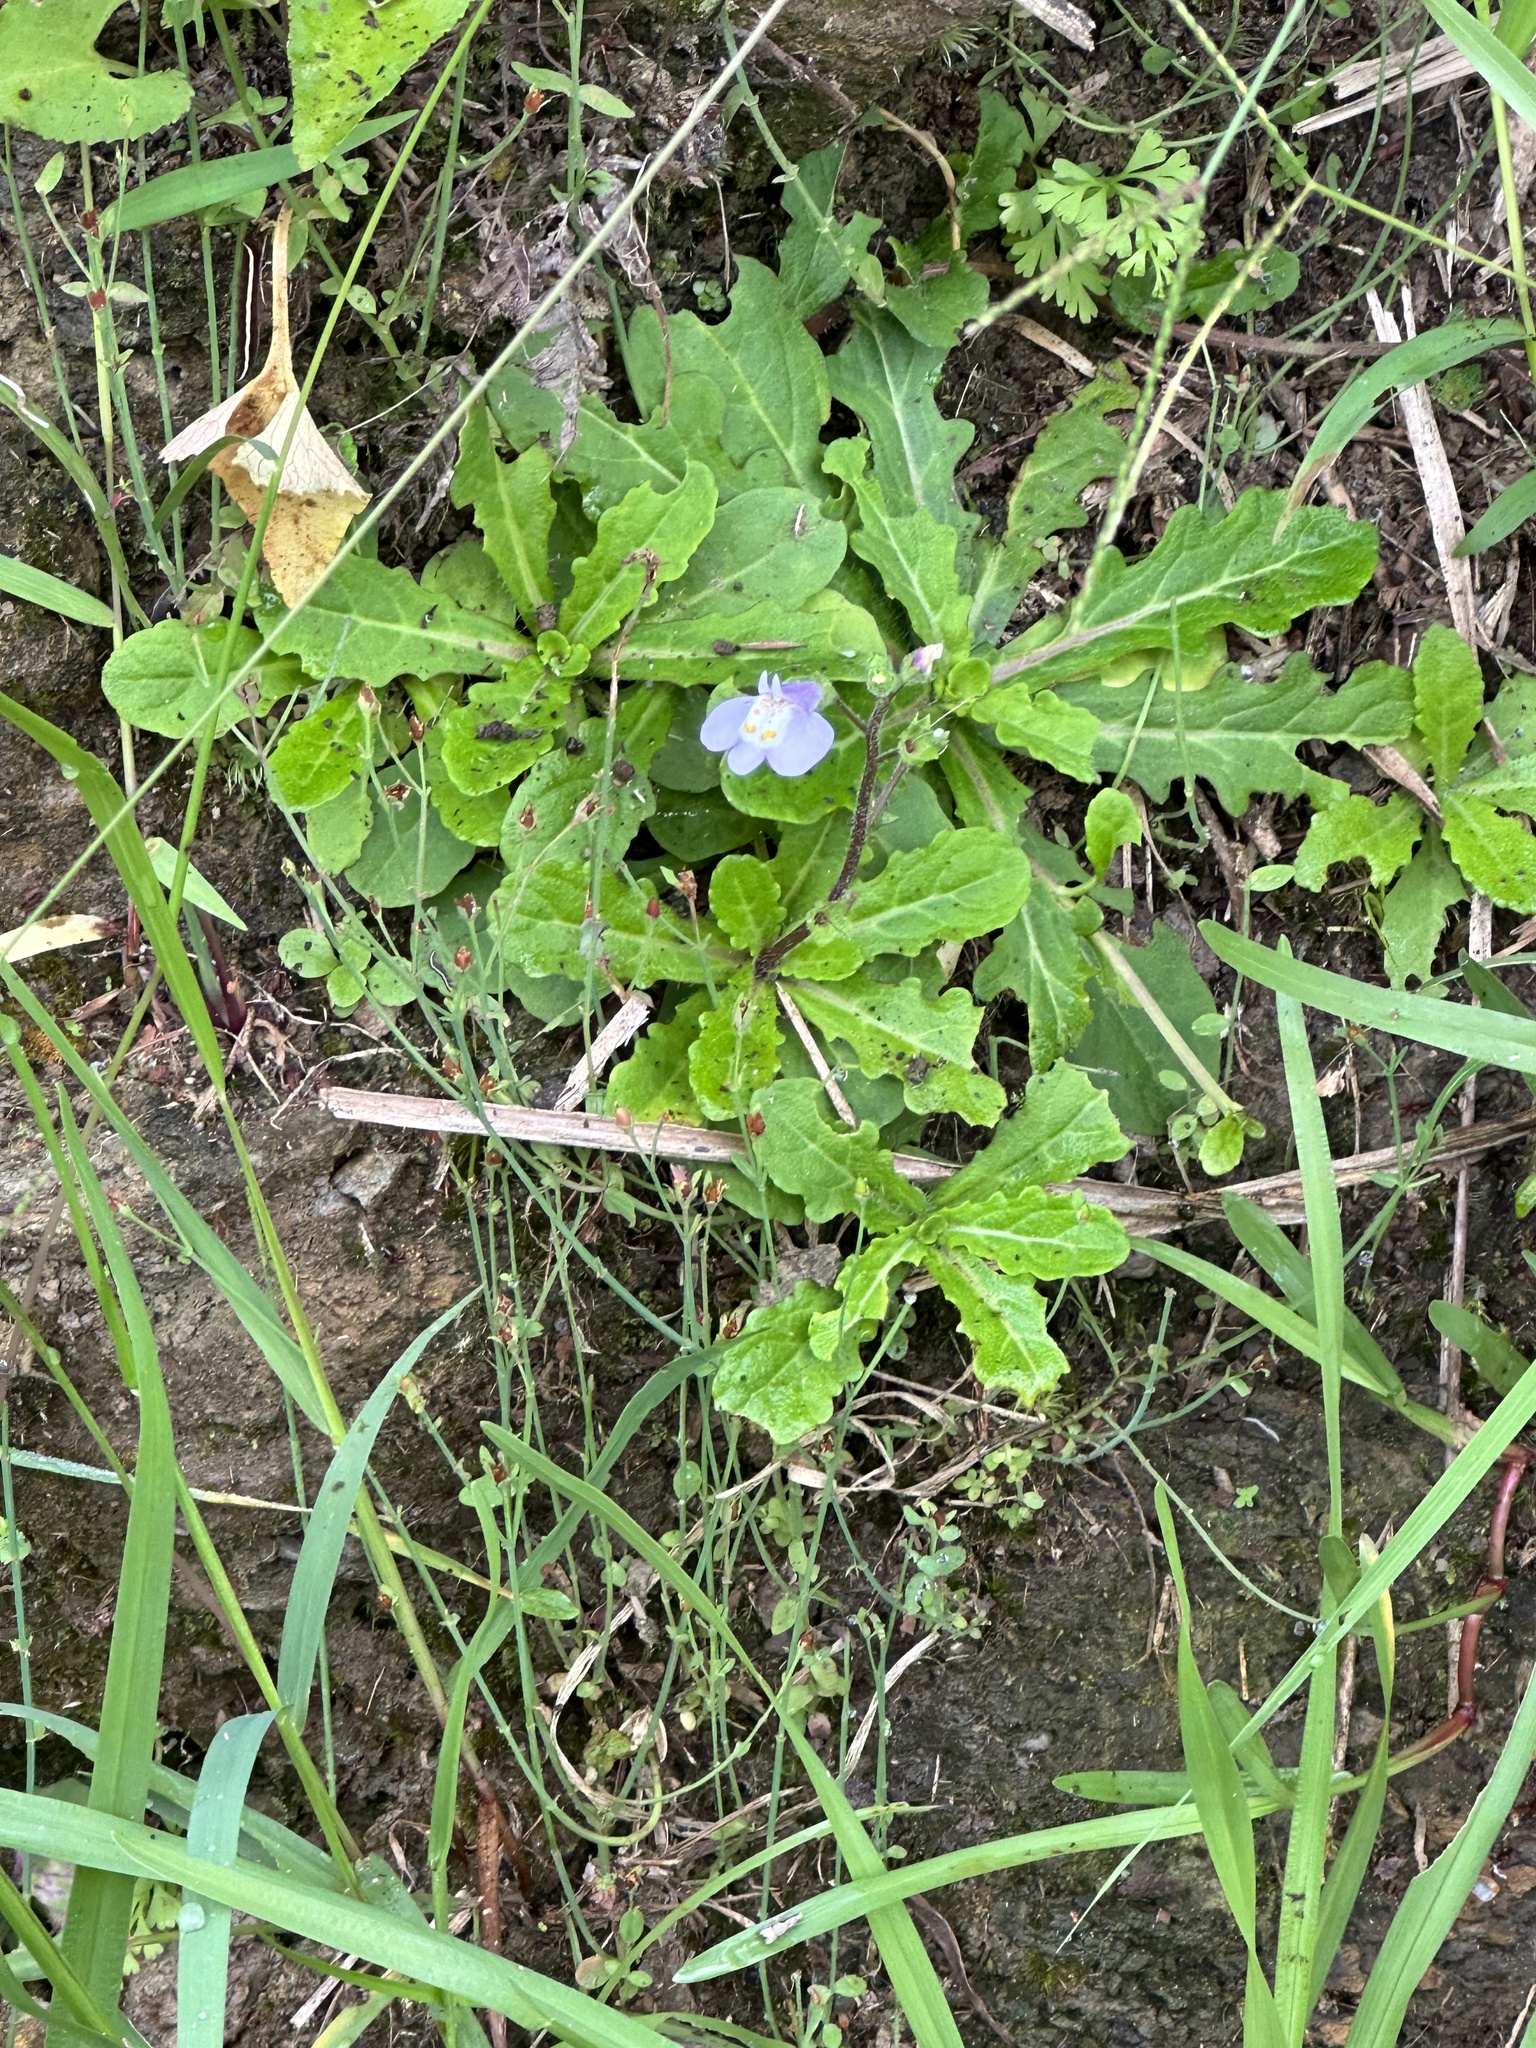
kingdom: Plantae
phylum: Tracheophyta
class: Magnoliopsida
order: Lamiales
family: Mazaceae
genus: Mazus
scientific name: Mazus fauriei
